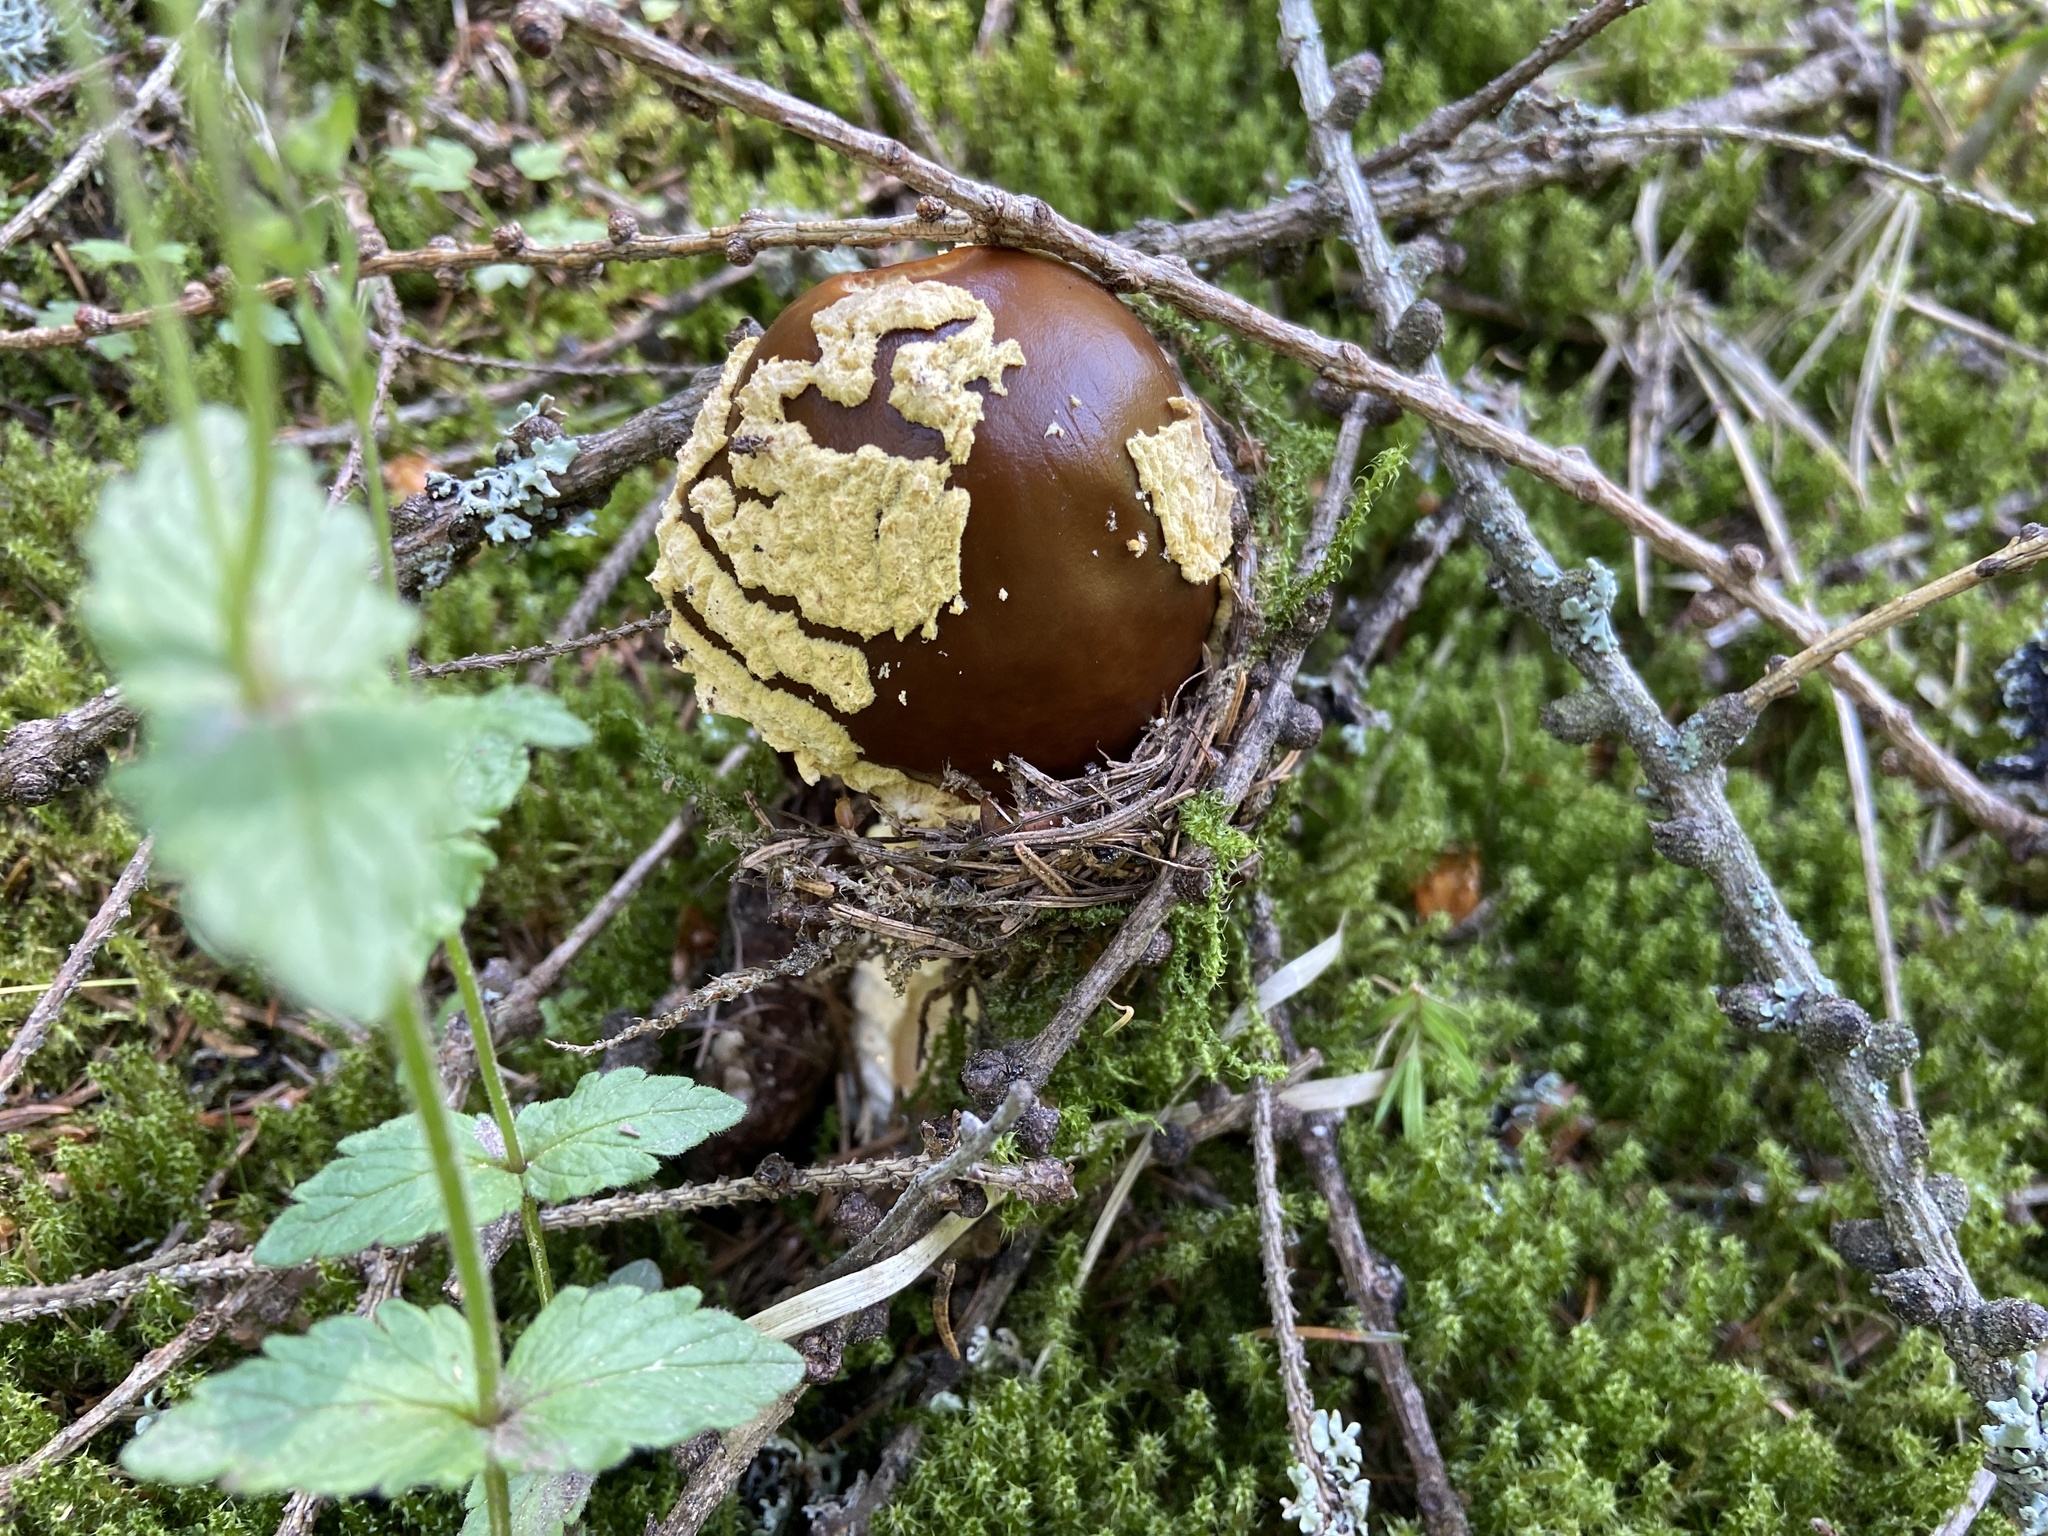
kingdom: Fungi
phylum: Basidiomycota
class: Agaricomycetes
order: Agaricales
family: Amanitaceae
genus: Amanita
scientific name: Amanita regalis
